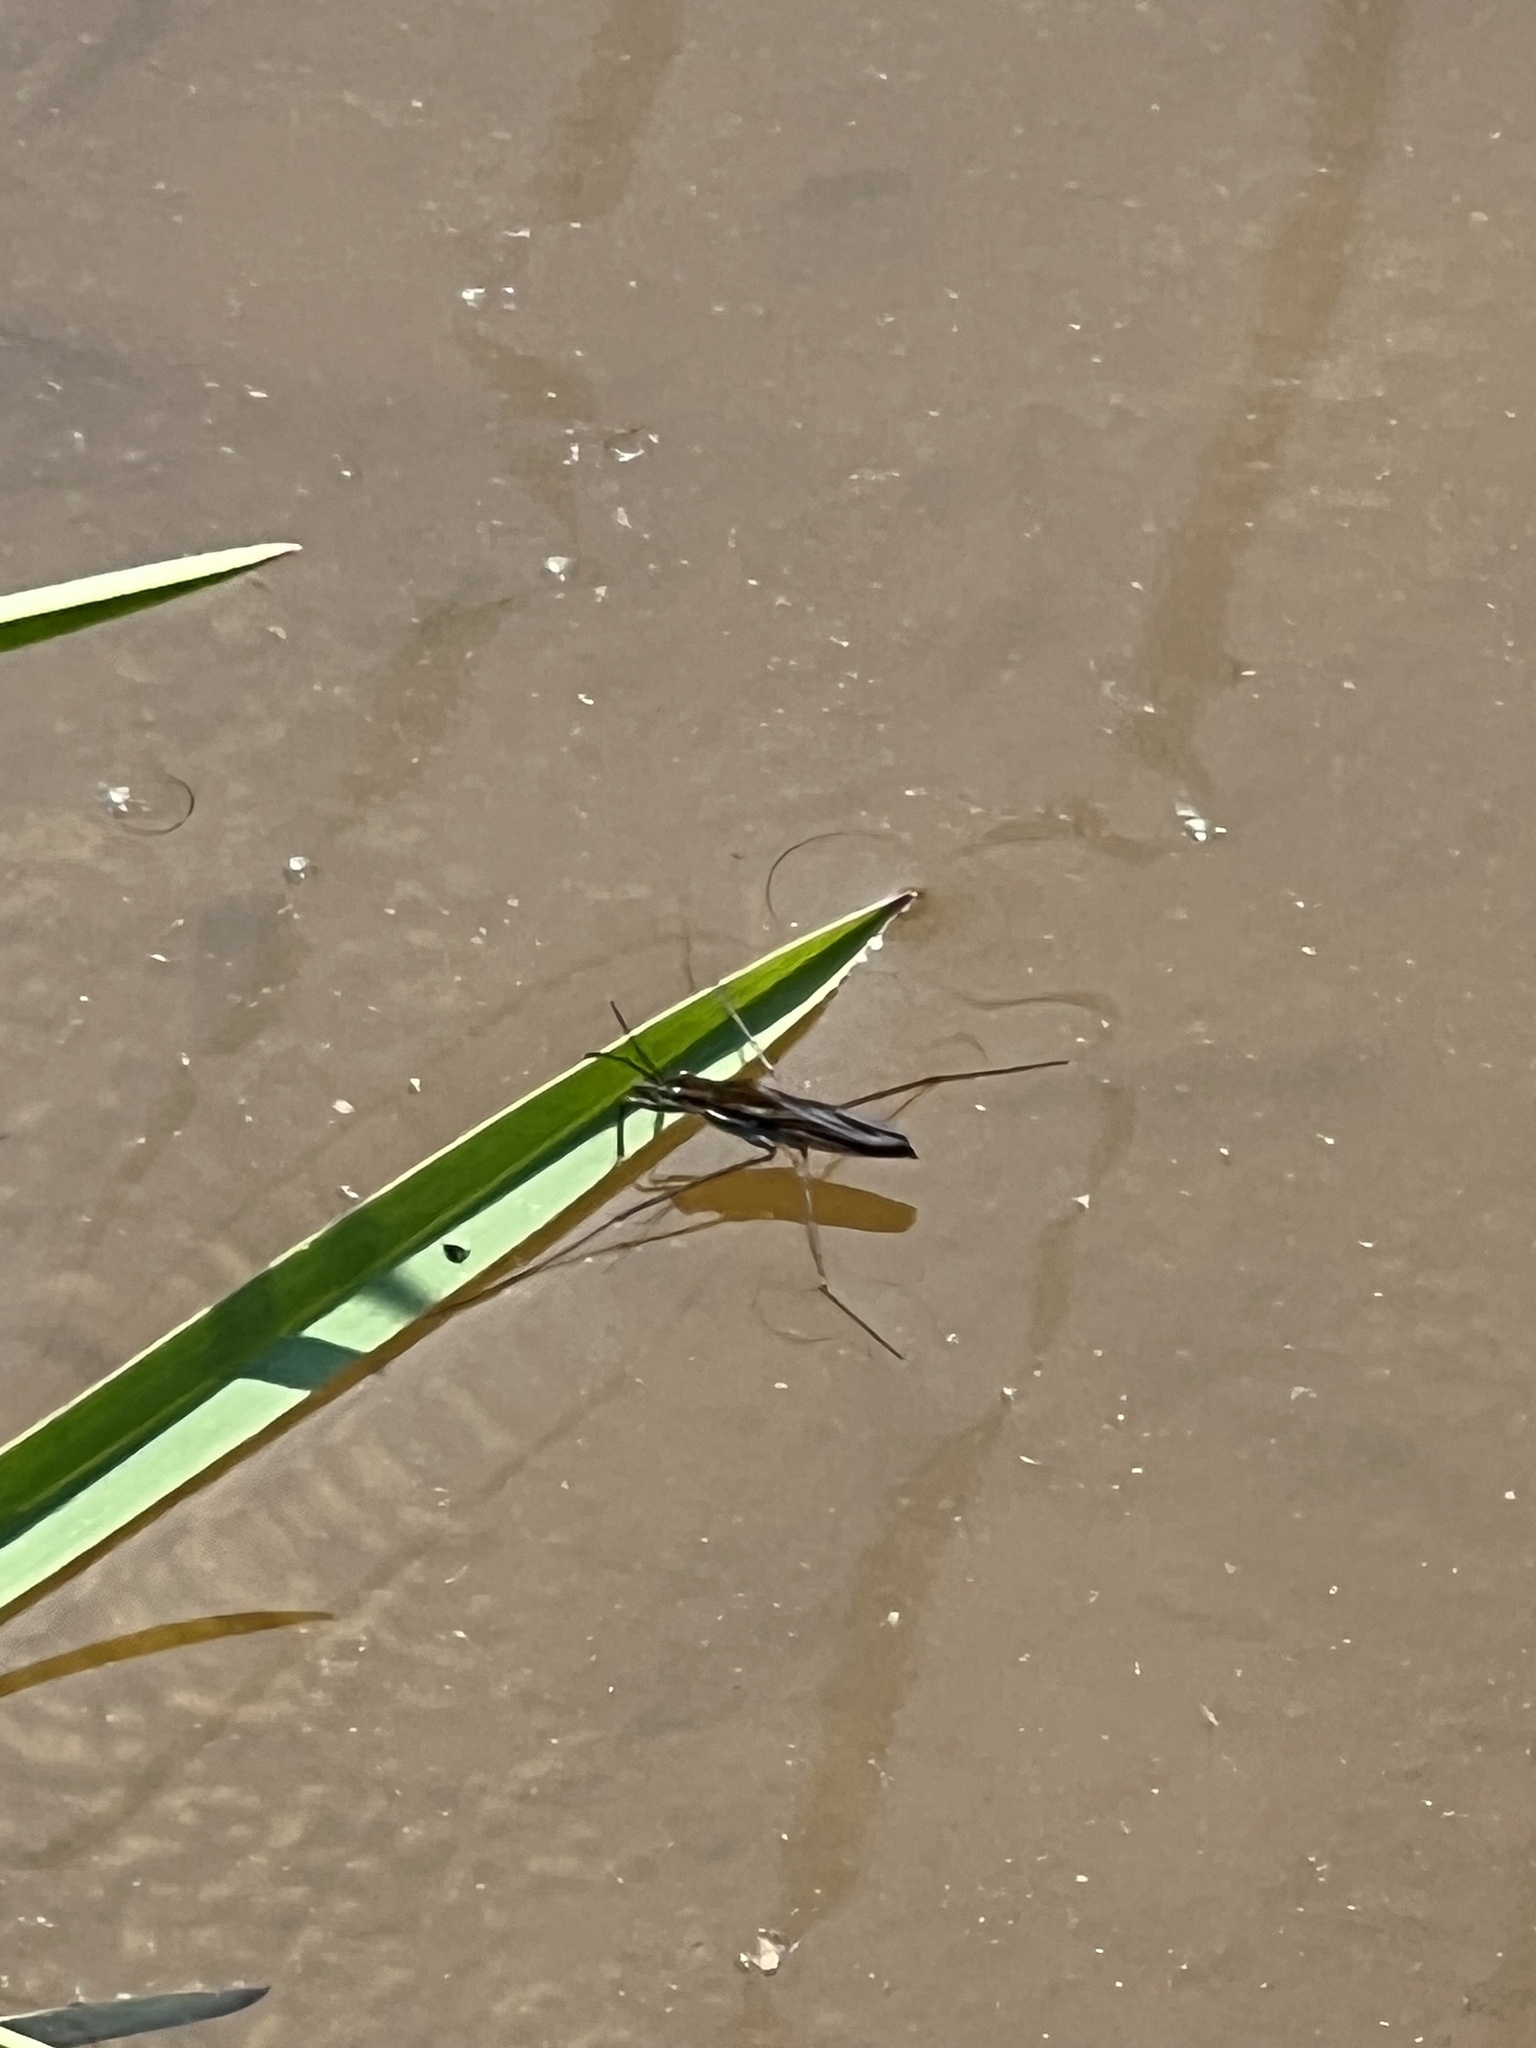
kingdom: Animalia
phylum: Arthropoda
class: Insecta
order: Hemiptera
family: Gerridae
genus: Gerris
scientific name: Gerris
